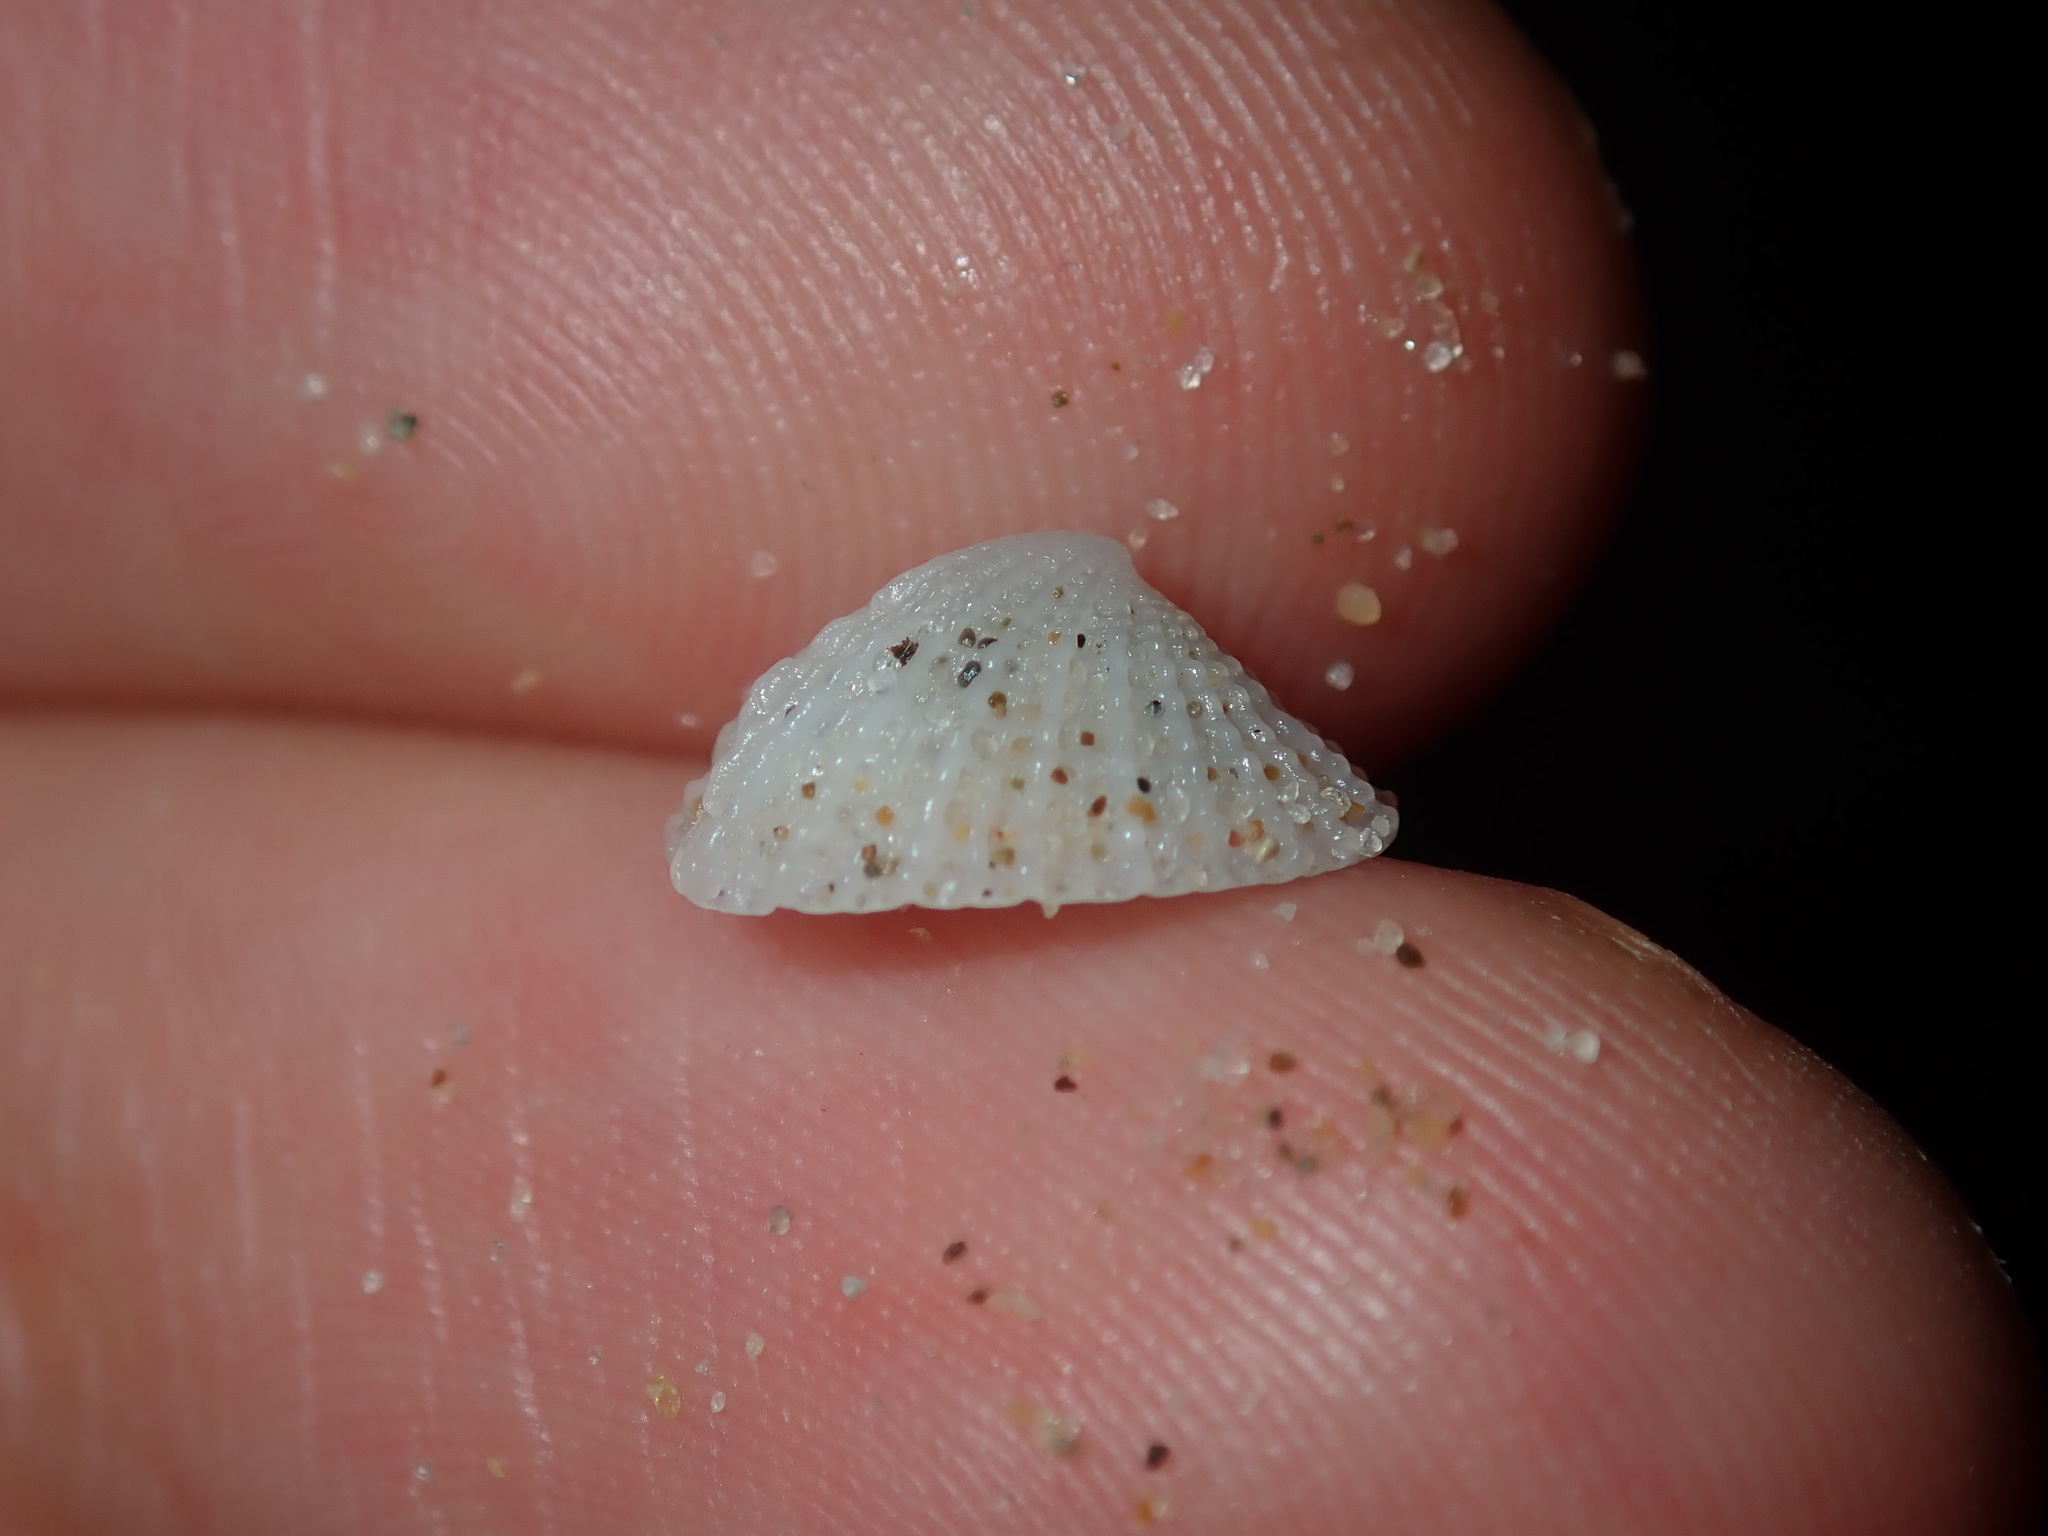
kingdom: Animalia
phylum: Mollusca
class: Gastropoda
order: Lepetellida
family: Fissurellidae
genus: Emarginula
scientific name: Emarginula candida
